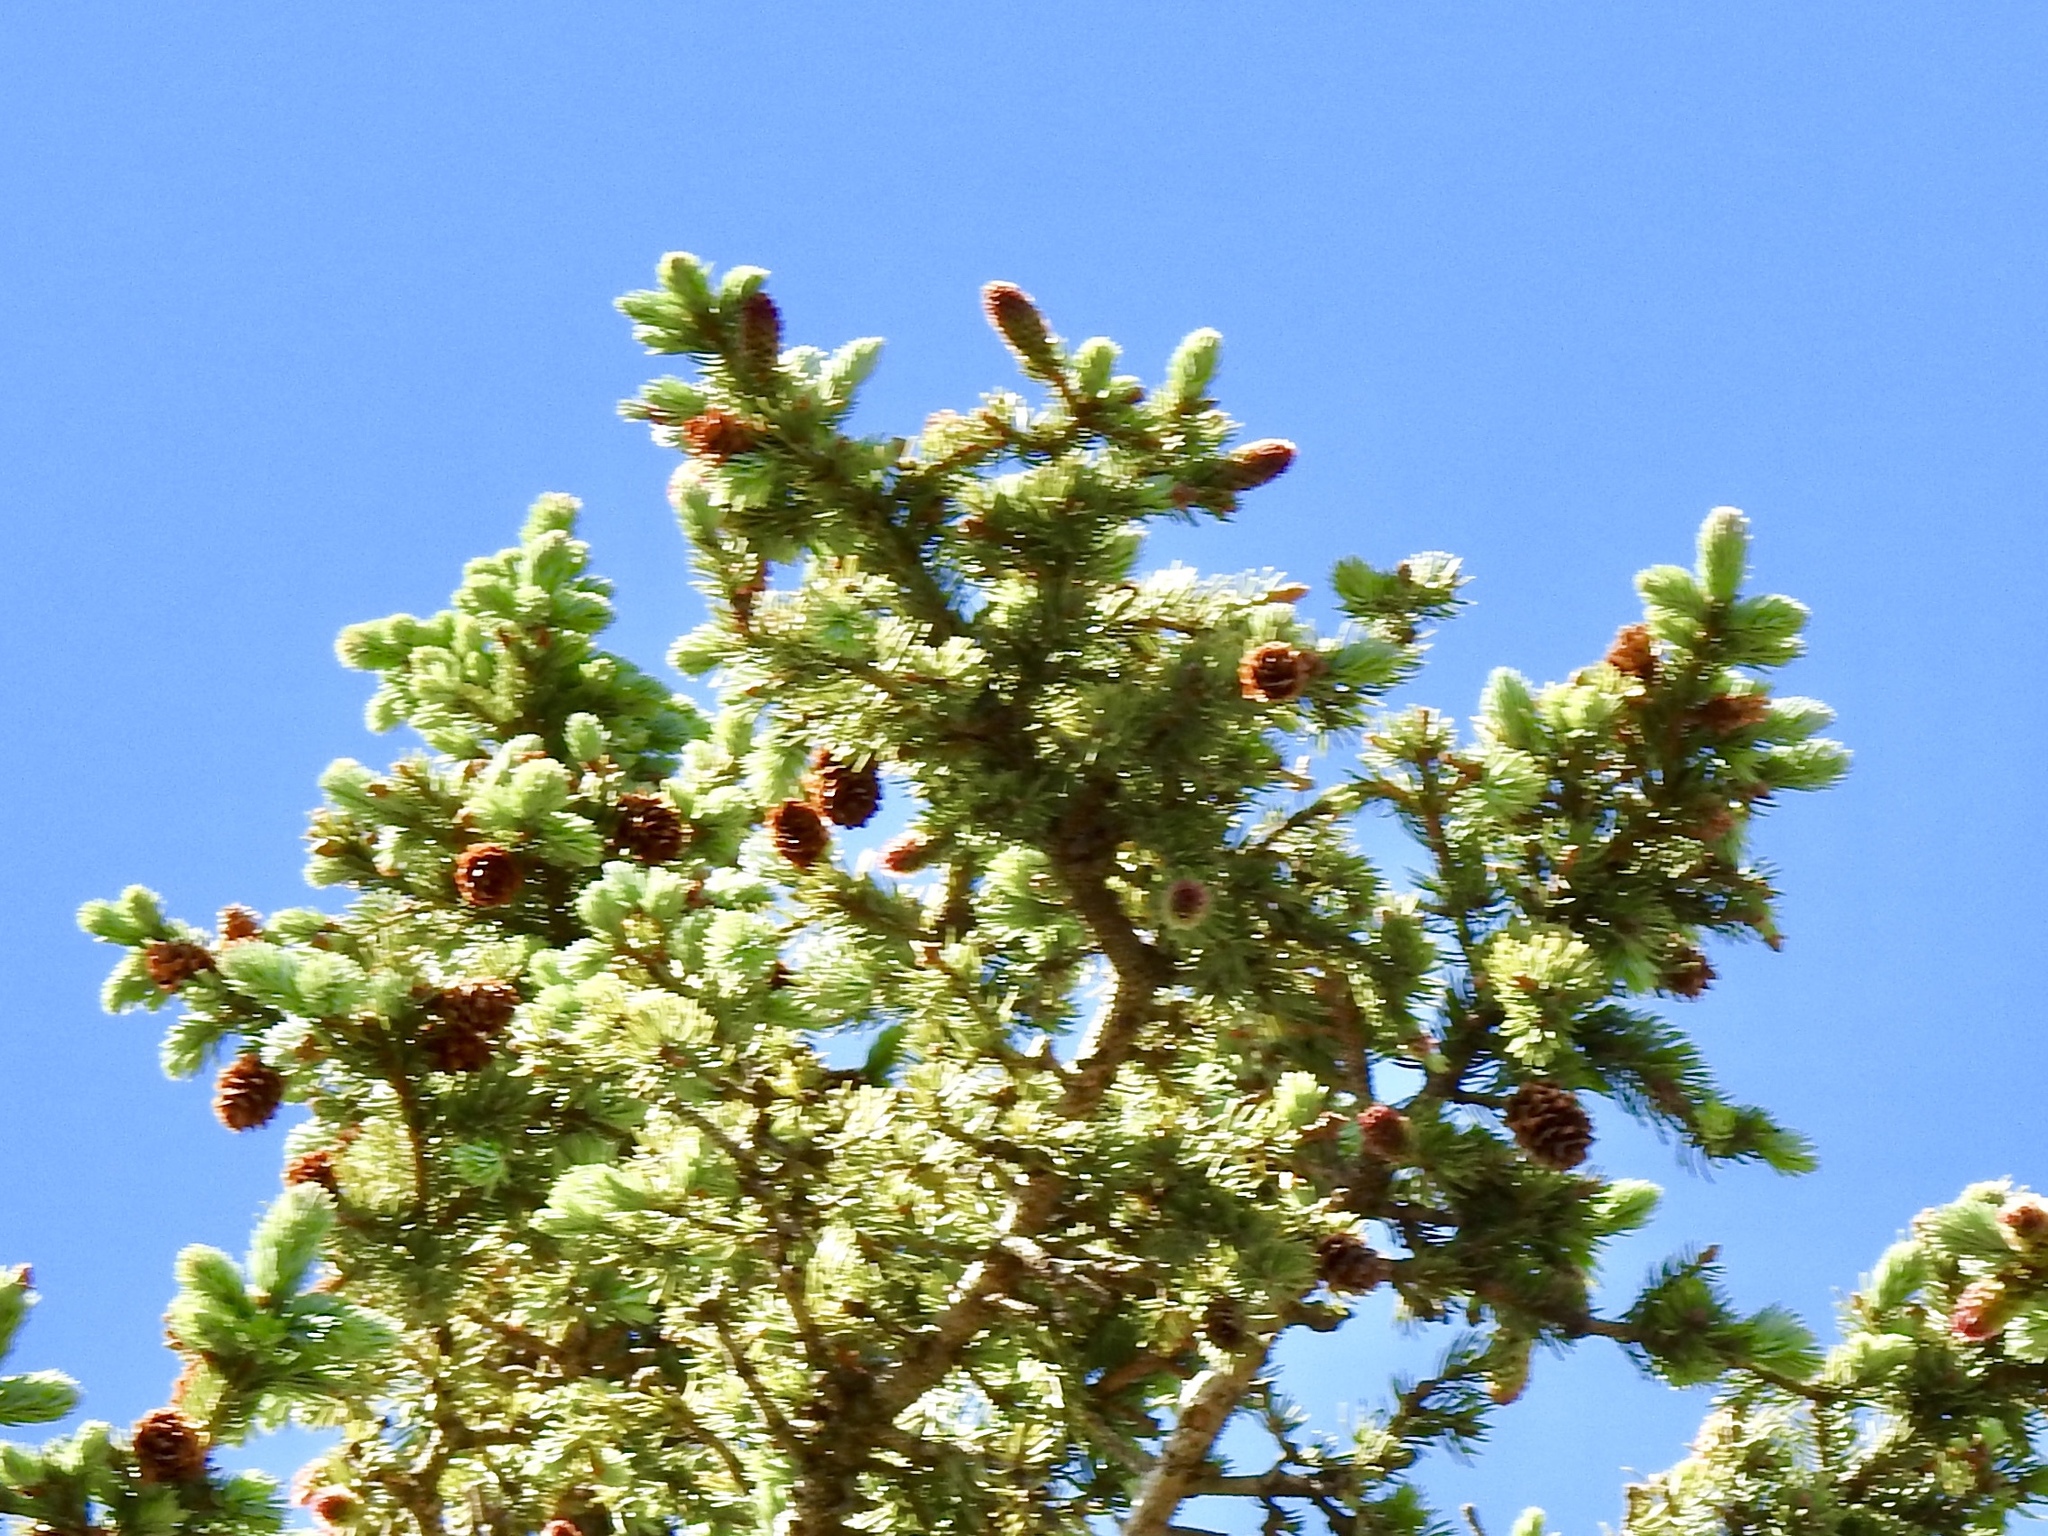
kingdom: Plantae
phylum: Tracheophyta
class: Pinopsida
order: Pinales
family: Pinaceae
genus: Picea
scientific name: Picea engelmannii
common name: Engelmann spruce
